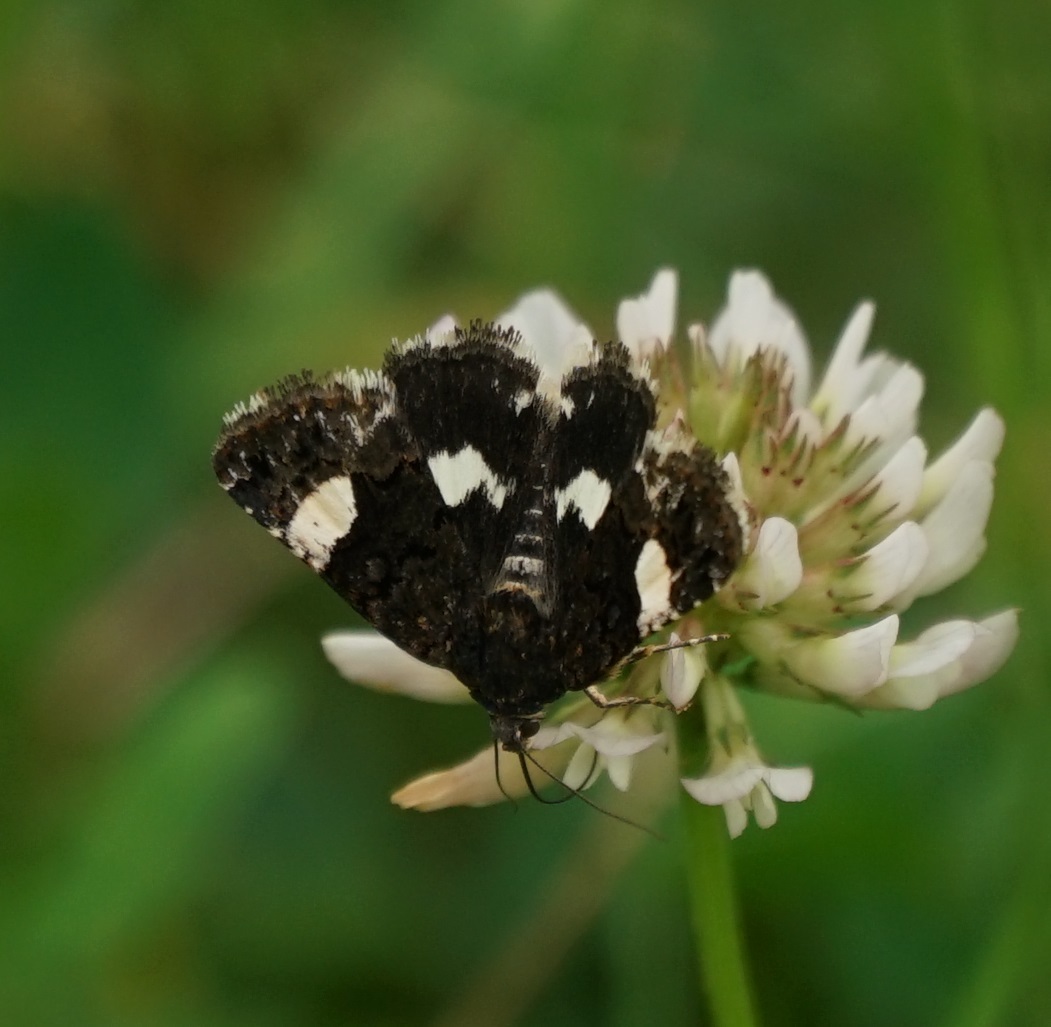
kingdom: Animalia
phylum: Arthropoda
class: Insecta
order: Lepidoptera
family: Erebidae
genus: Tyta
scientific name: Tyta luctuosa
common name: Four-spotted
